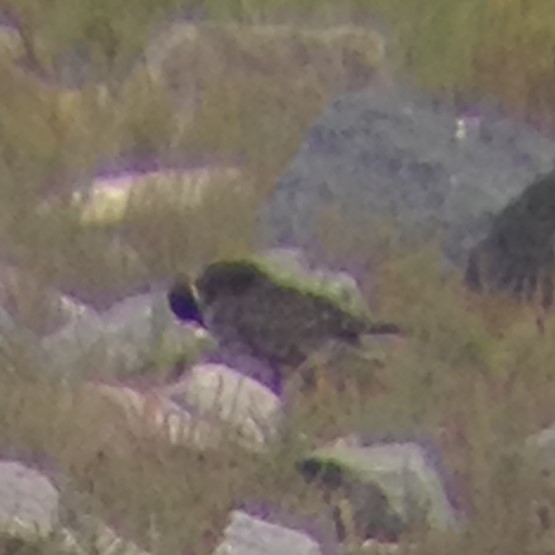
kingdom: Animalia
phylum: Chordata
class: Aves
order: Charadriiformes
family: Charadriidae
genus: Pluvialis
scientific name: Pluvialis dominica
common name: American golden plover
